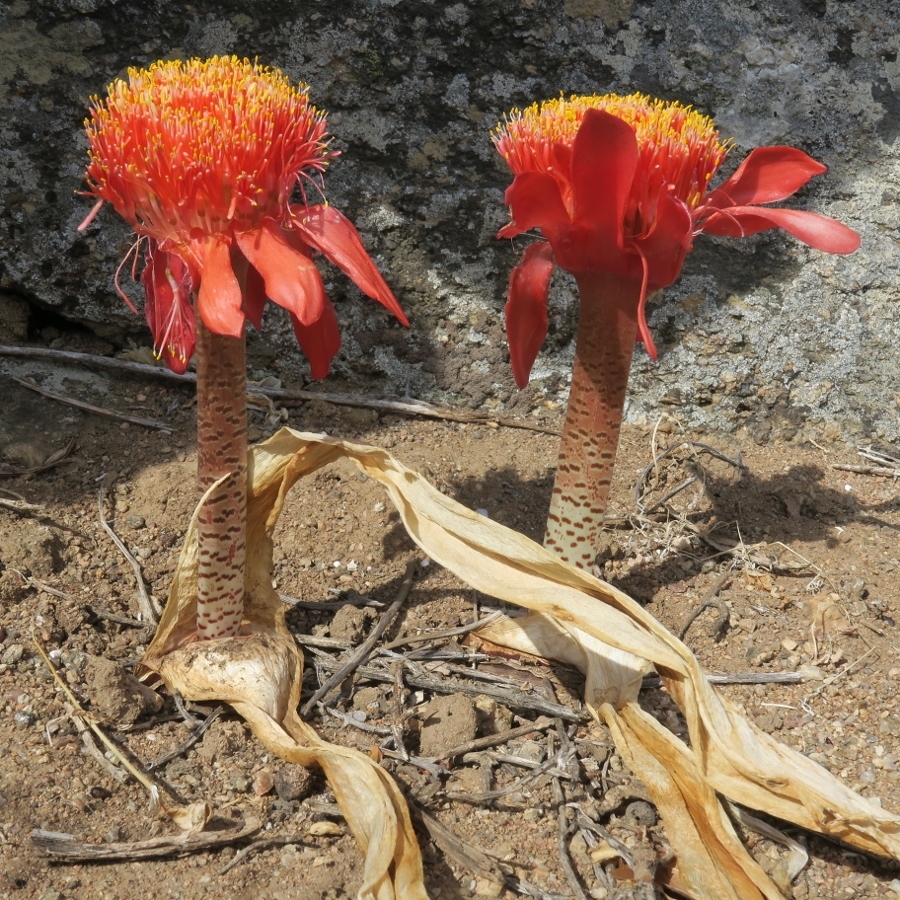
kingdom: Plantae
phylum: Tracheophyta
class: Liliopsida
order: Asparagales
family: Amaryllidaceae
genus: Haemanthus
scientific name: Haemanthus coccineus
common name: Cape-tulip
